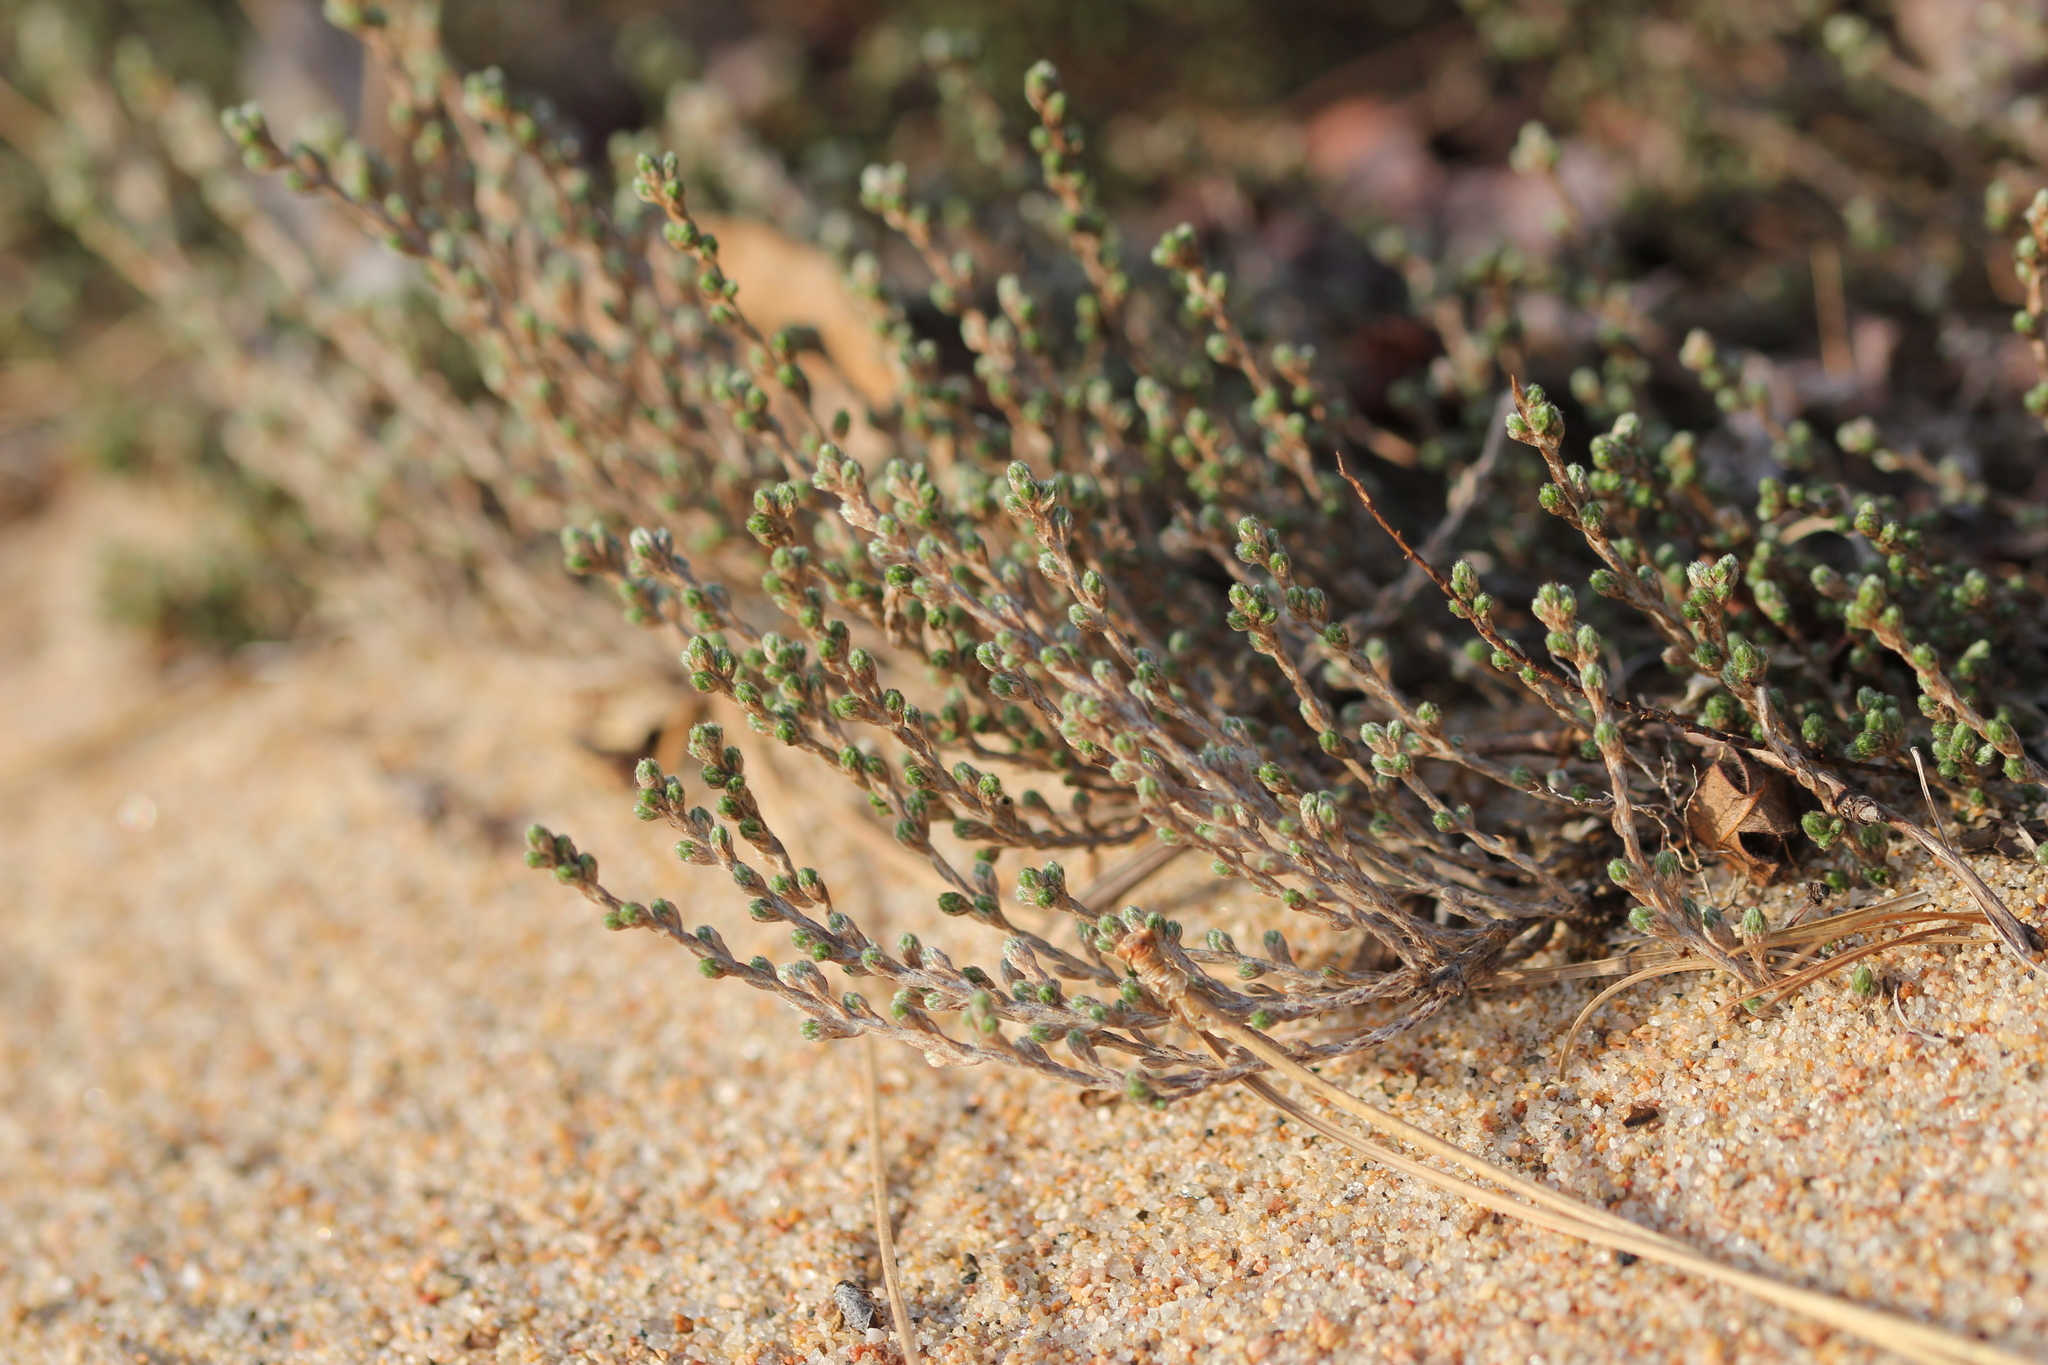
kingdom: Plantae
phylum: Tracheophyta
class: Magnoliopsida
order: Malvales
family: Cistaceae
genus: Hudsonia
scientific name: Hudsonia tomentosa
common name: Beach-heath
